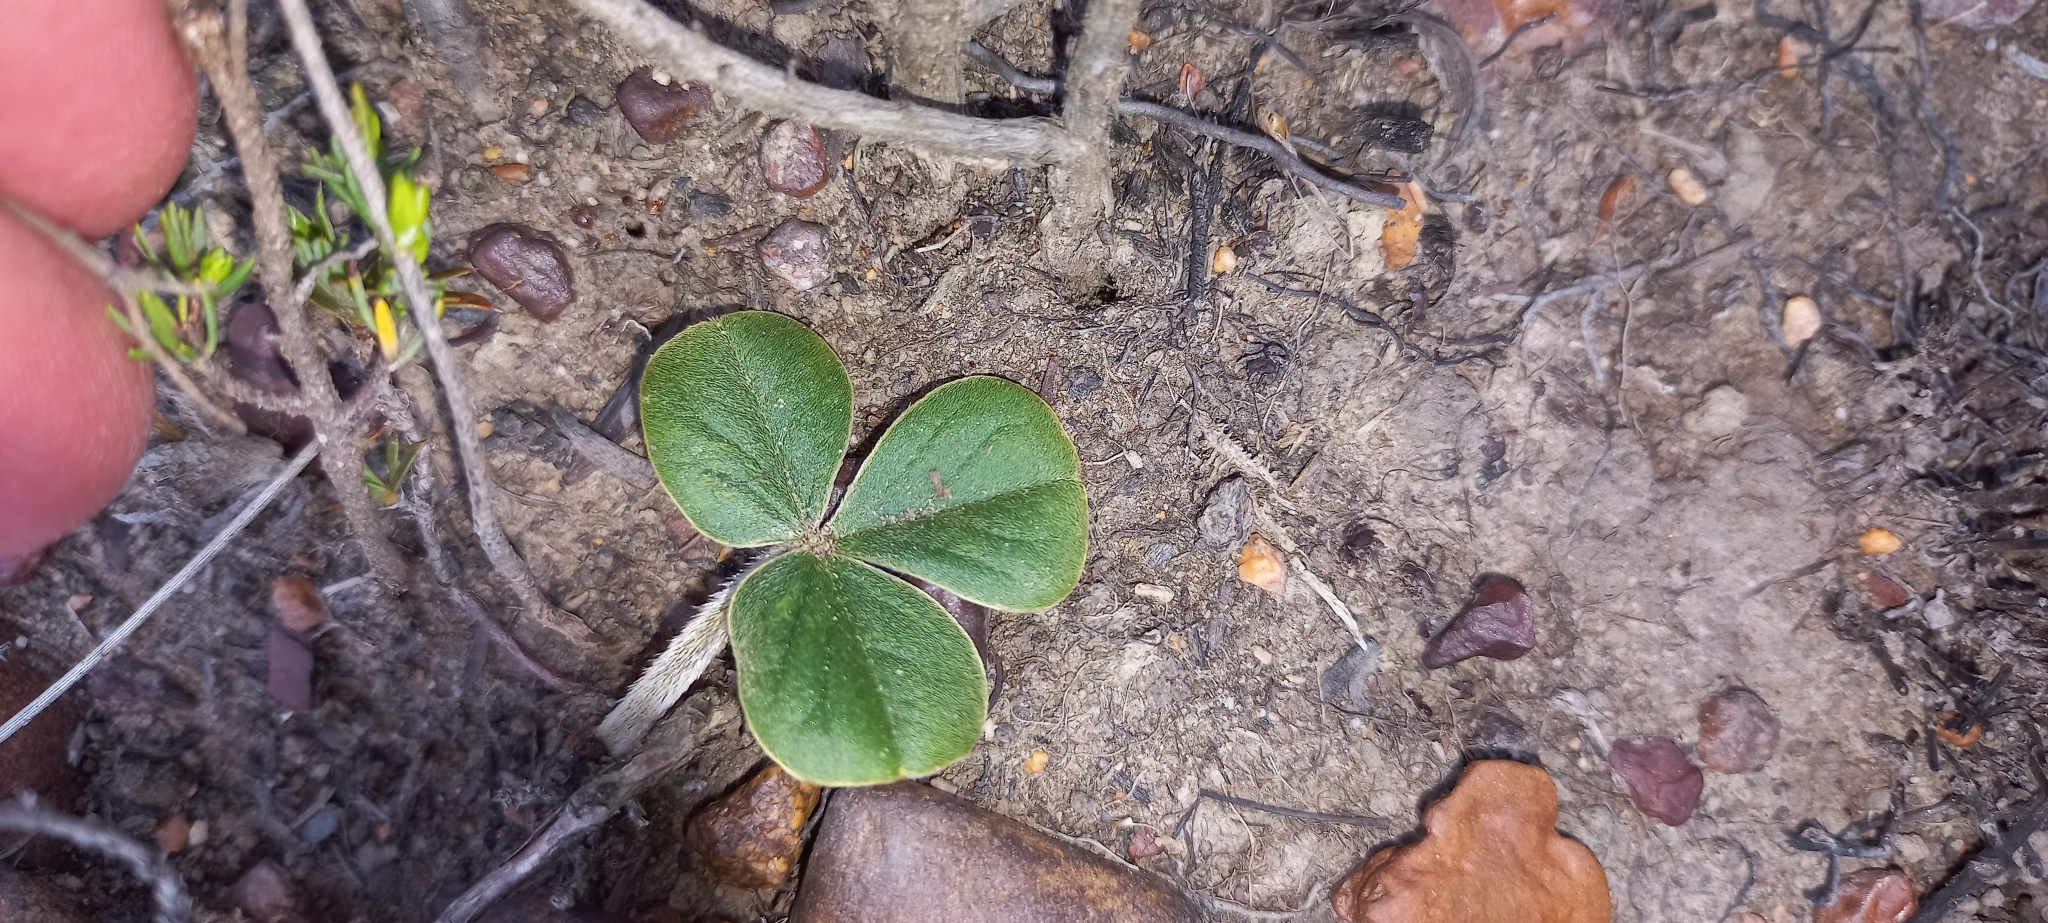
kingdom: Plantae
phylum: Tracheophyta
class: Magnoliopsida
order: Oxalidales
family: Oxalidaceae
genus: Oxalis
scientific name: Oxalis truncatula
